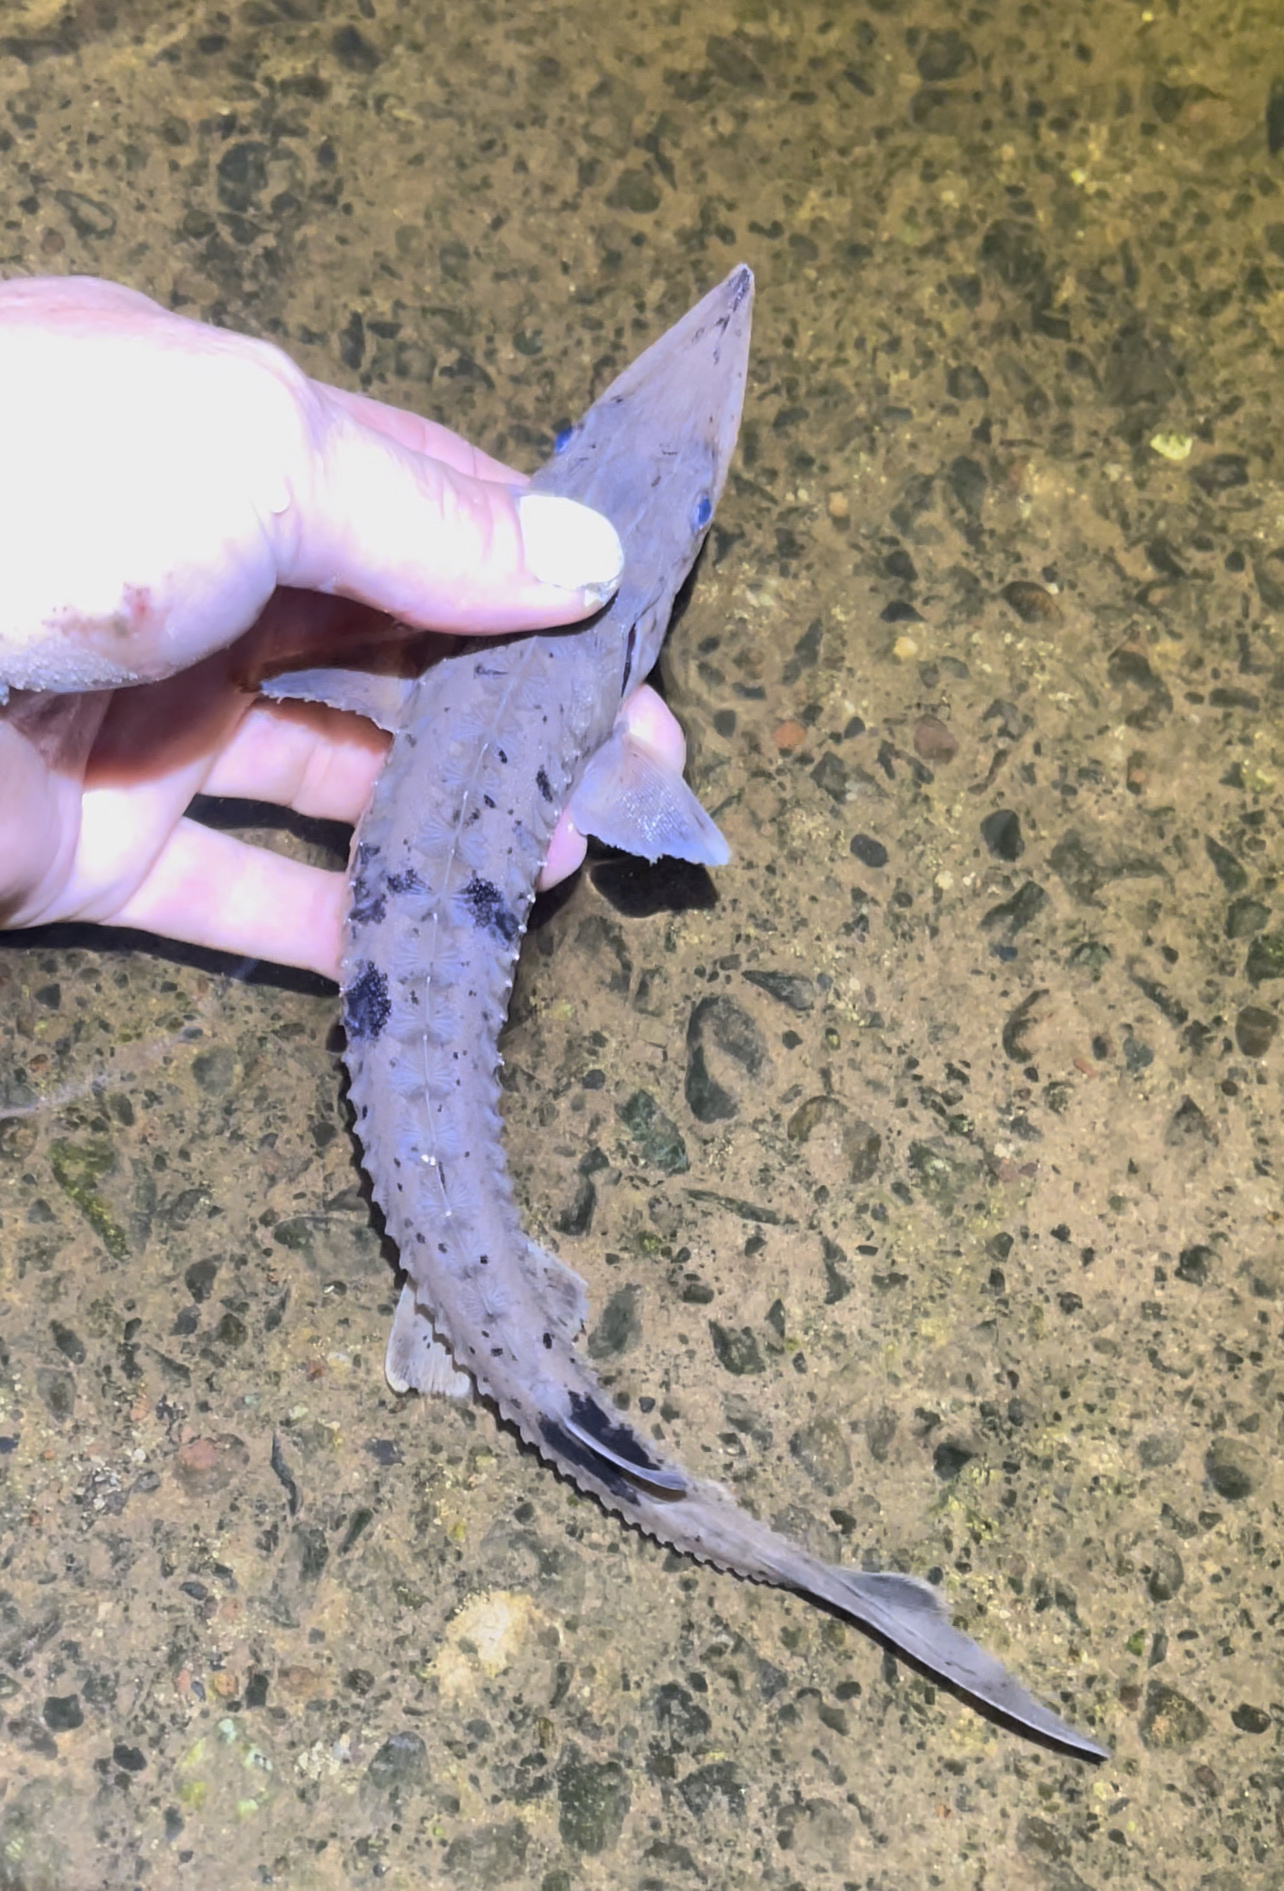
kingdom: Animalia
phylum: Chordata
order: Acipenseriformes
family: Acipenseridae
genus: Acipenser
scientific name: Acipenser fulvescens
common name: Lake sturgeon
